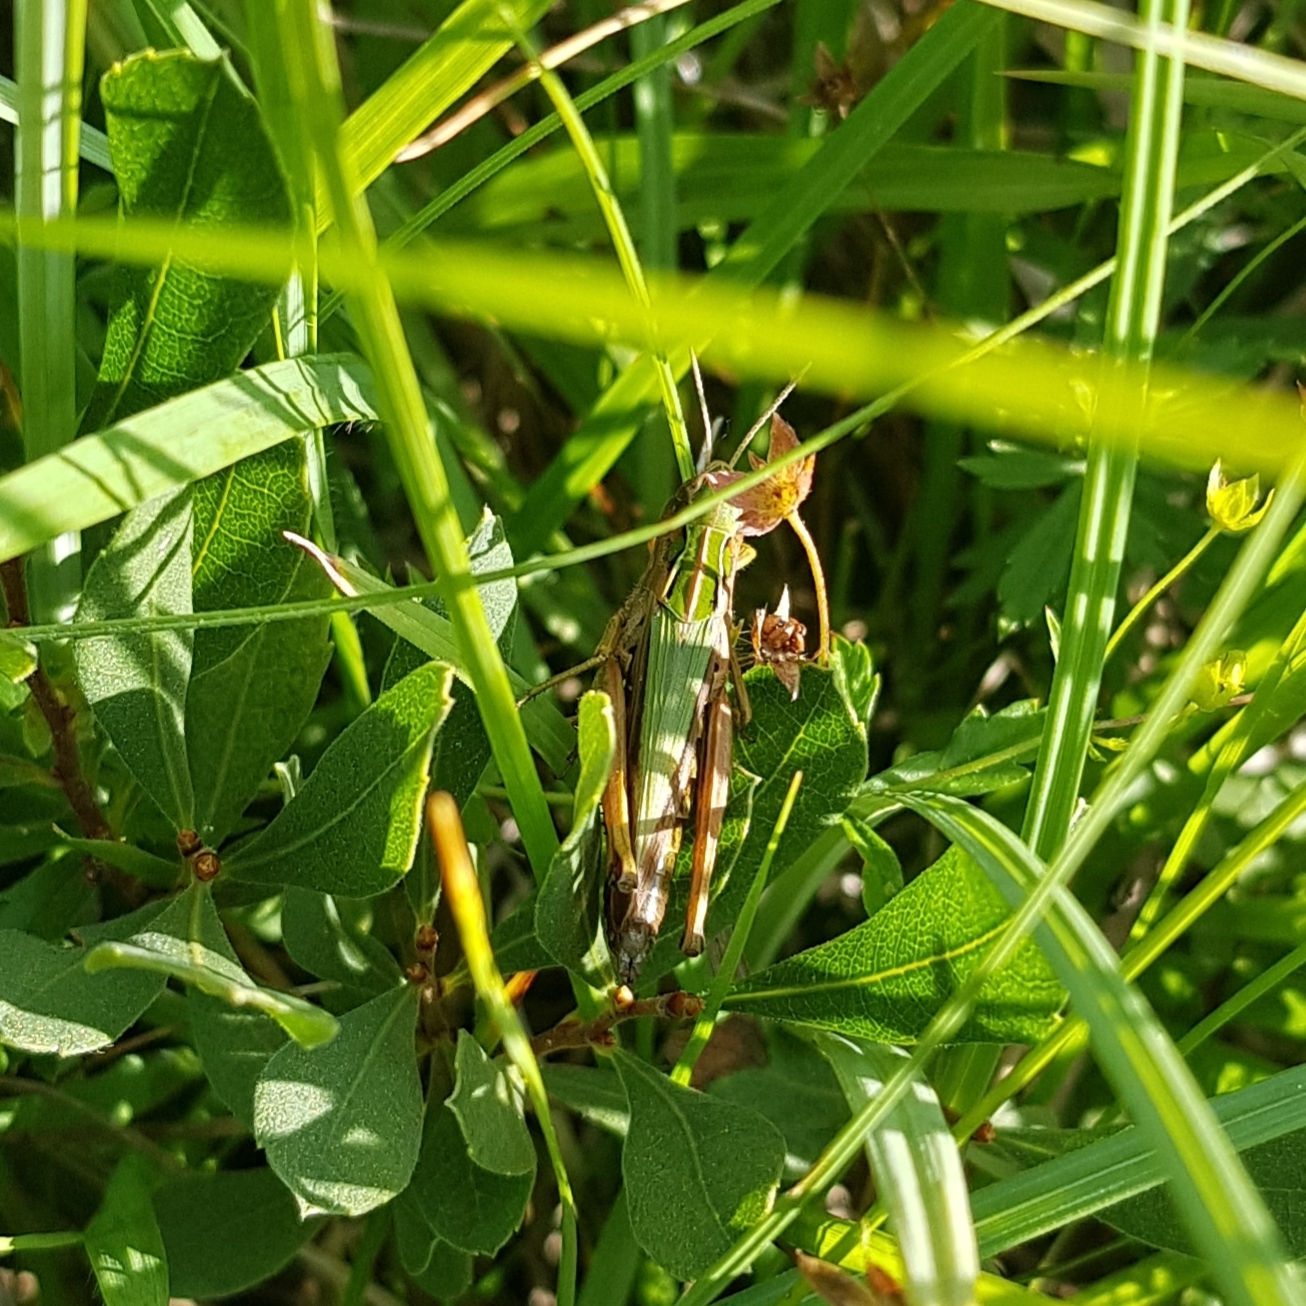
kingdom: Animalia
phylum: Arthropoda
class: Insecta
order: Orthoptera
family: Acrididae
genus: Omocestus
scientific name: Omocestus viridulus
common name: Common green grasshopper
